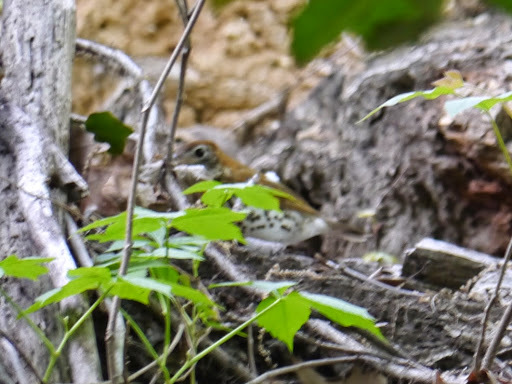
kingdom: Animalia
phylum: Chordata
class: Aves
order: Passeriformes
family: Turdidae
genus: Hylocichla
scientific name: Hylocichla mustelina
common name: Wood thrush
